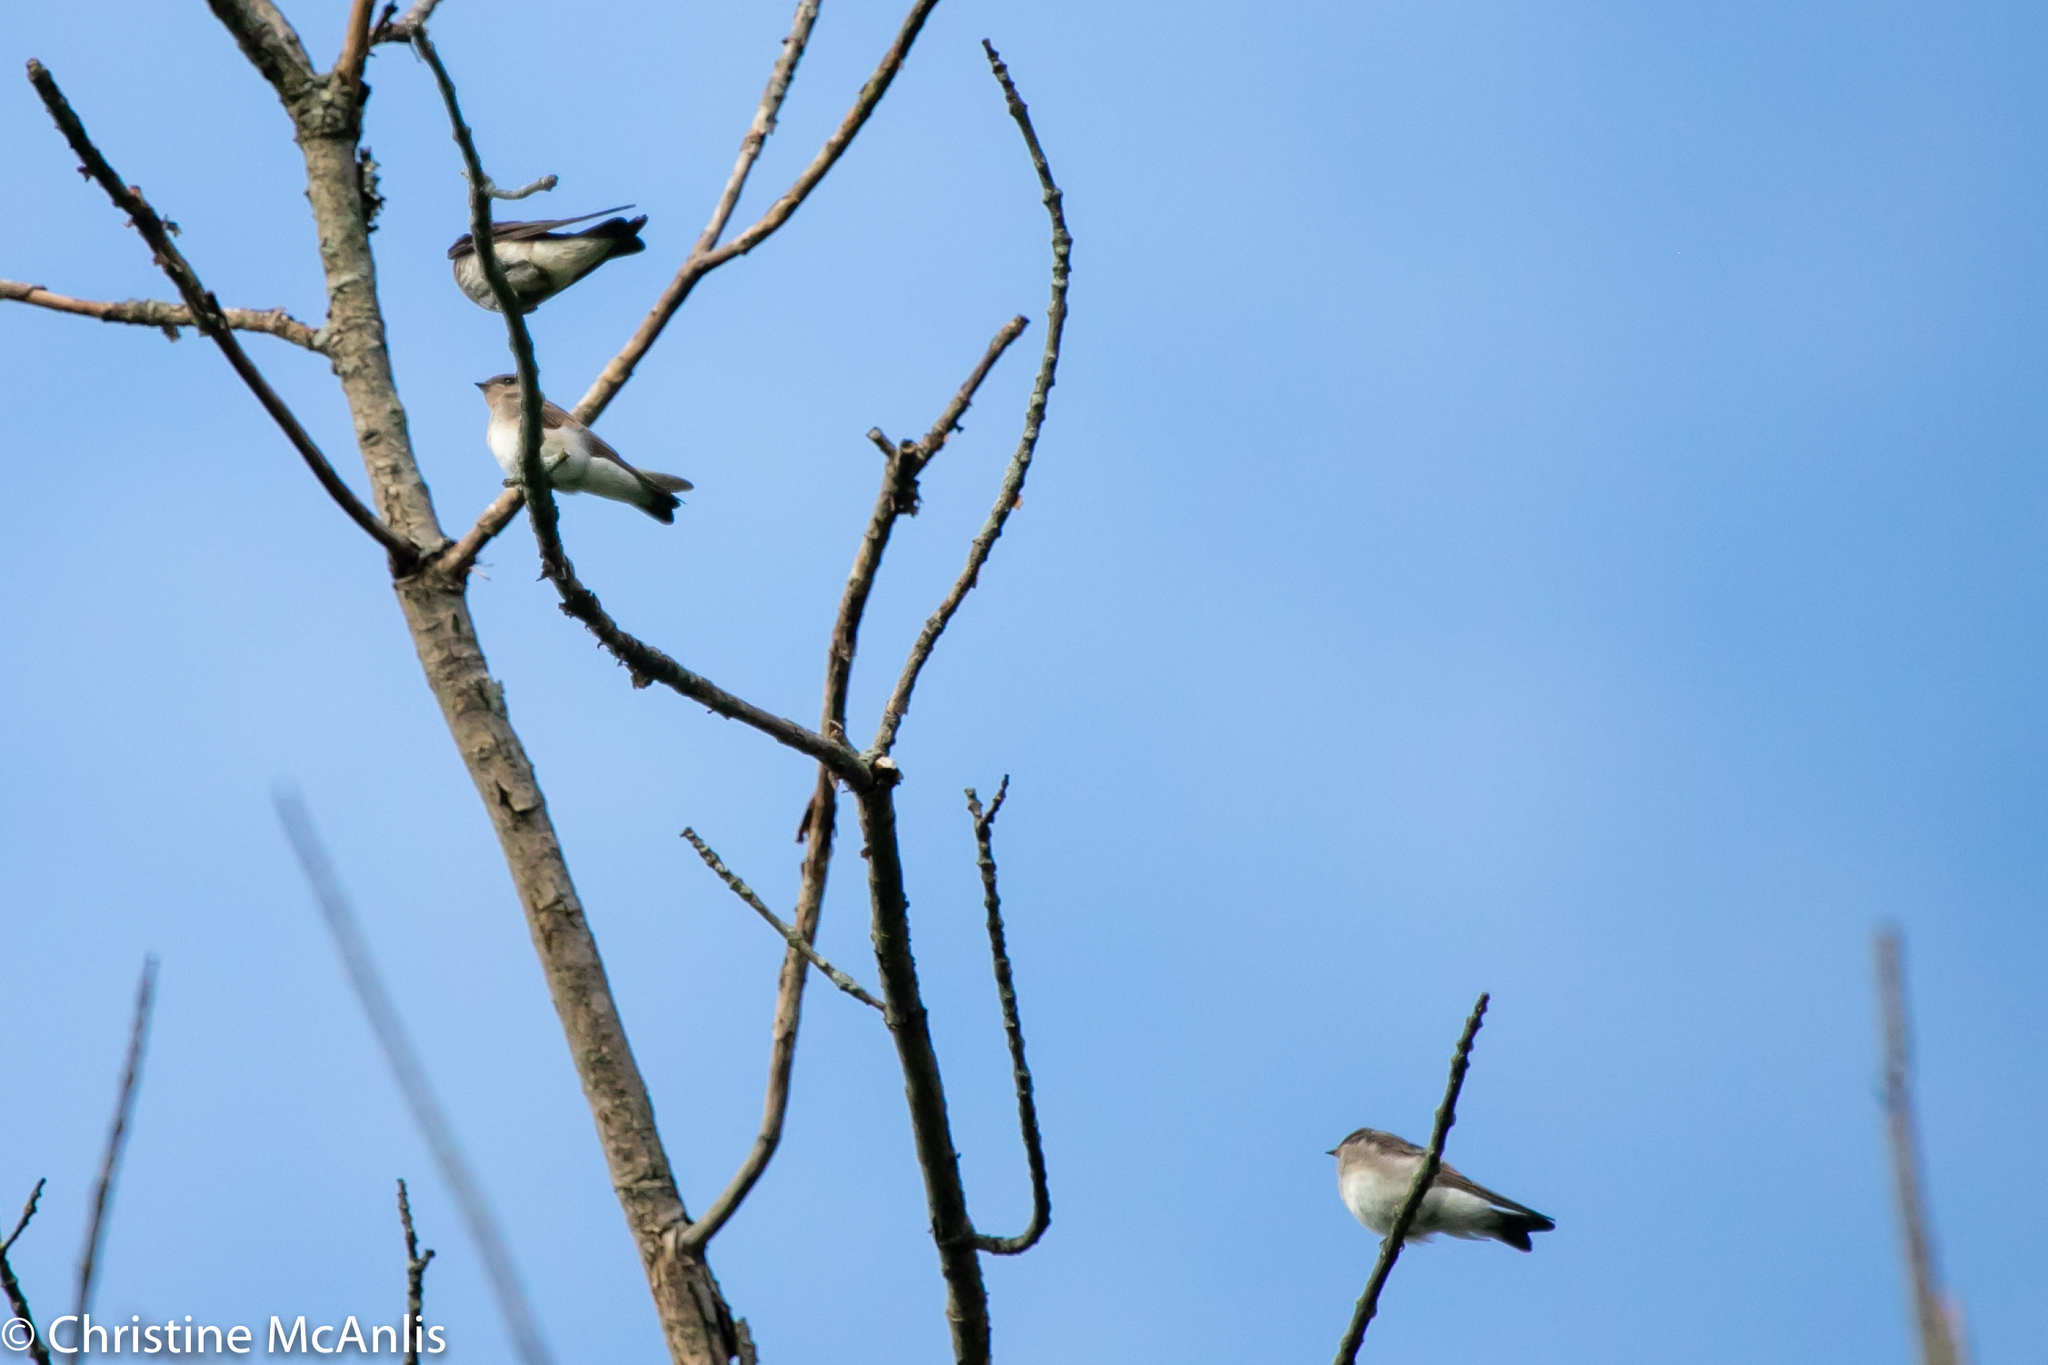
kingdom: Animalia
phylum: Chordata
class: Aves
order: Passeriformes
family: Hirundinidae
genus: Stelgidopteryx
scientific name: Stelgidopteryx serripennis
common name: Northern rough-winged swallow
